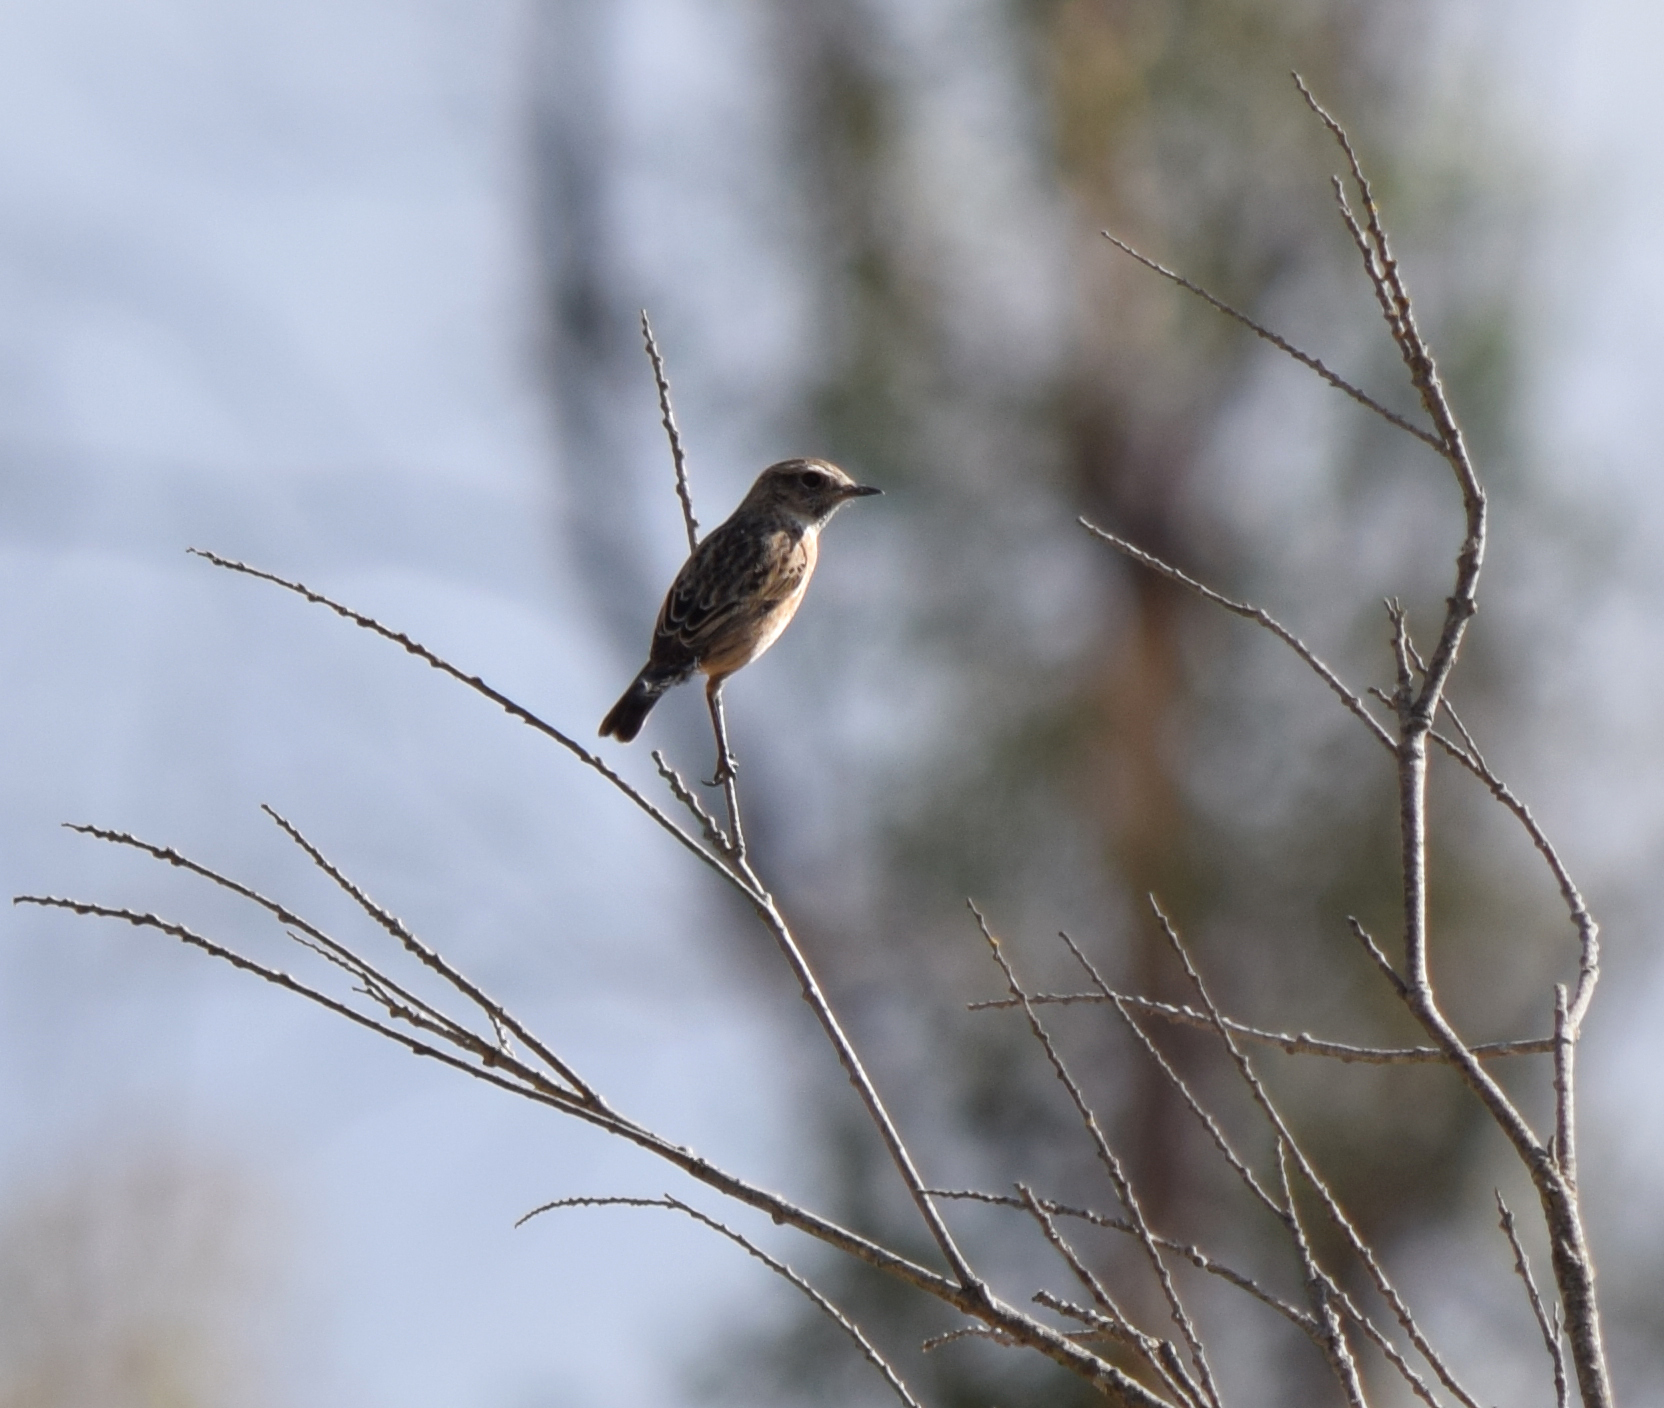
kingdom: Animalia
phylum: Chordata
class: Aves
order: Passeriformes
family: Muscicapidae
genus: Saxicola
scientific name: Saxicola rubicola
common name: European stonechat
